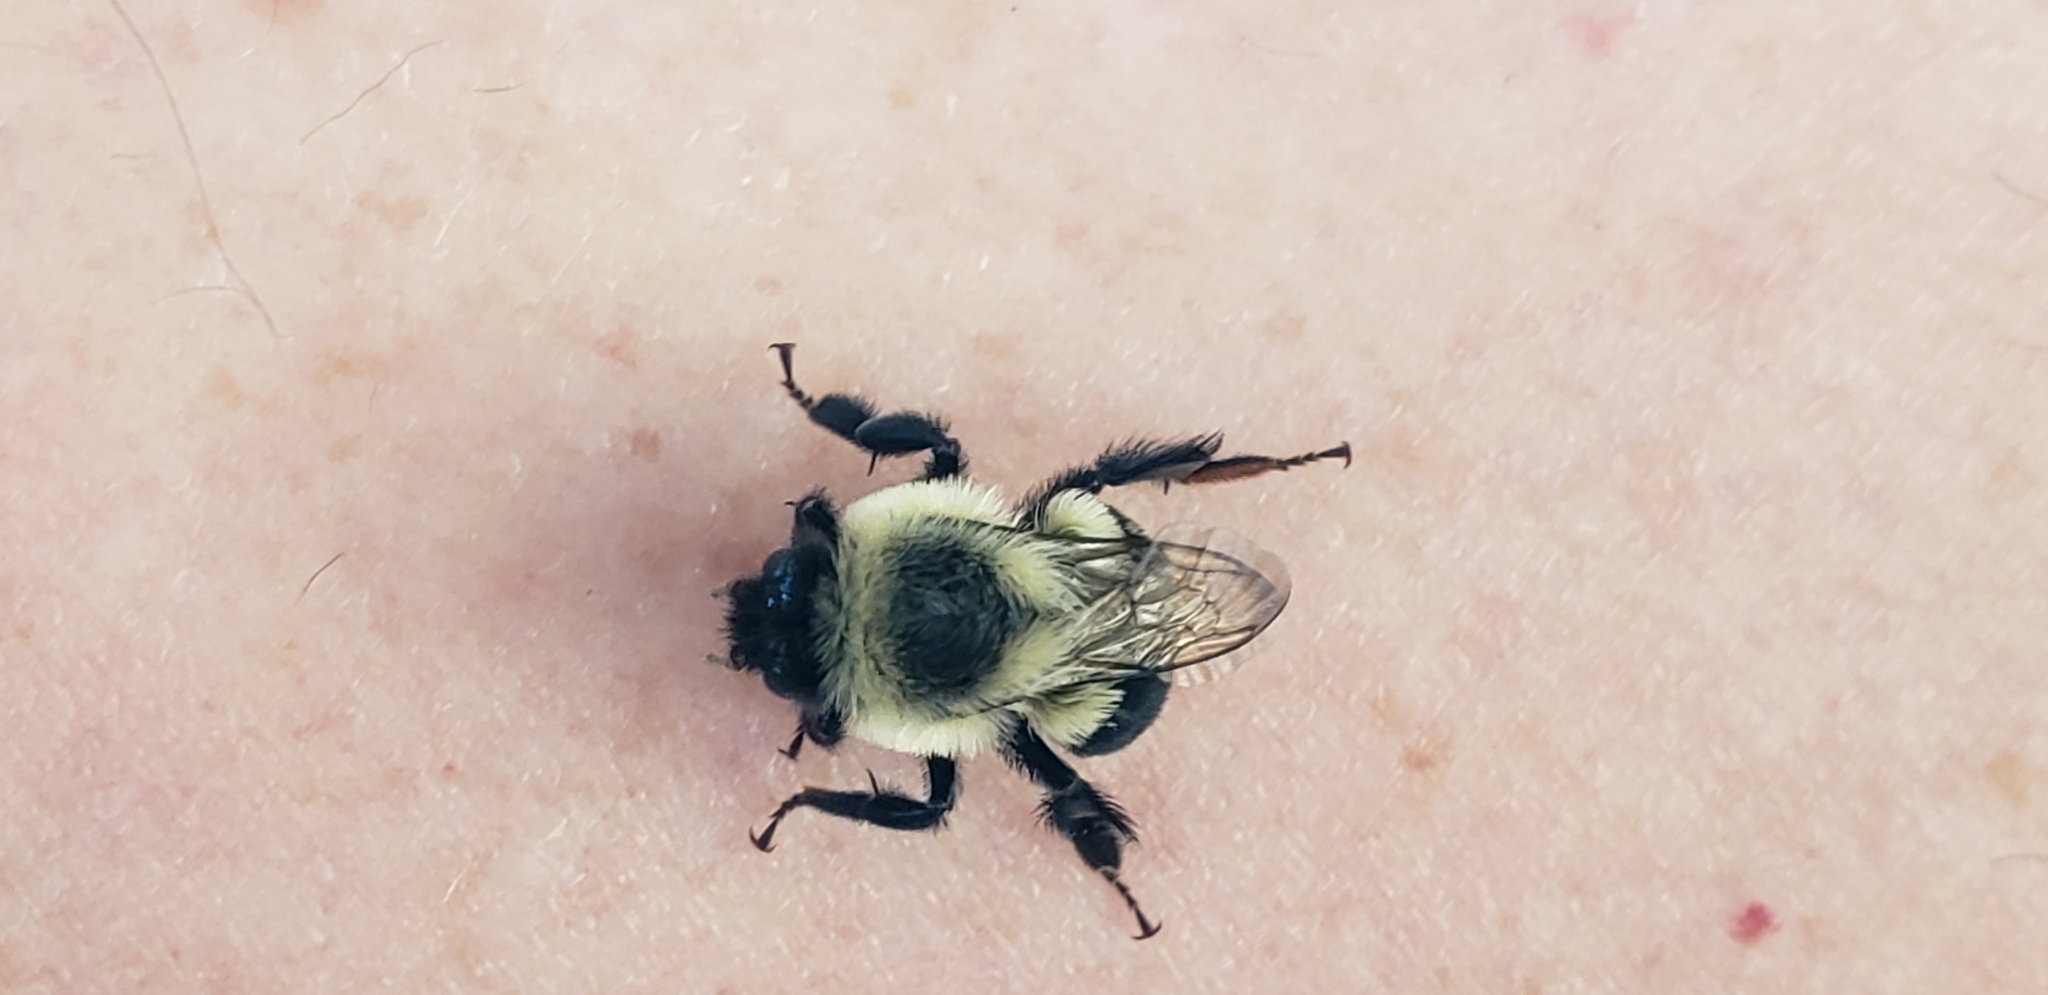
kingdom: Animalia
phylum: Arthropoda
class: Insecta
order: Hymenoptera
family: Apidae
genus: Bombus
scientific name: Bombus impatiens
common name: Common eastern bumble bee
